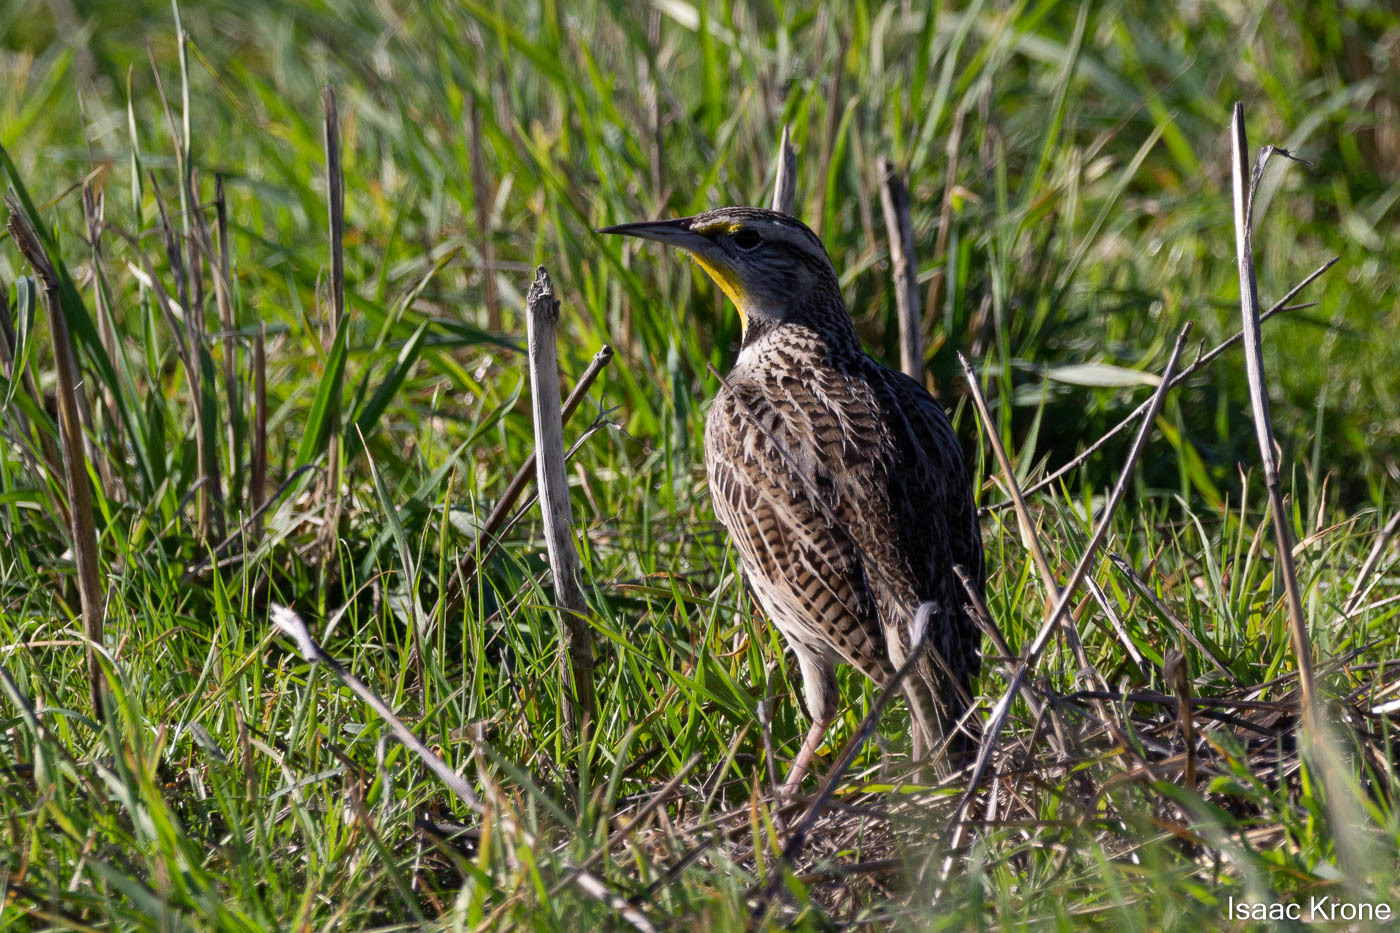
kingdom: Animalia
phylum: Chordata
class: Aves
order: Passeriformes
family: Icteridae
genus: Sturnella
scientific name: Sturnella neglecta
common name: Western meadowlark
